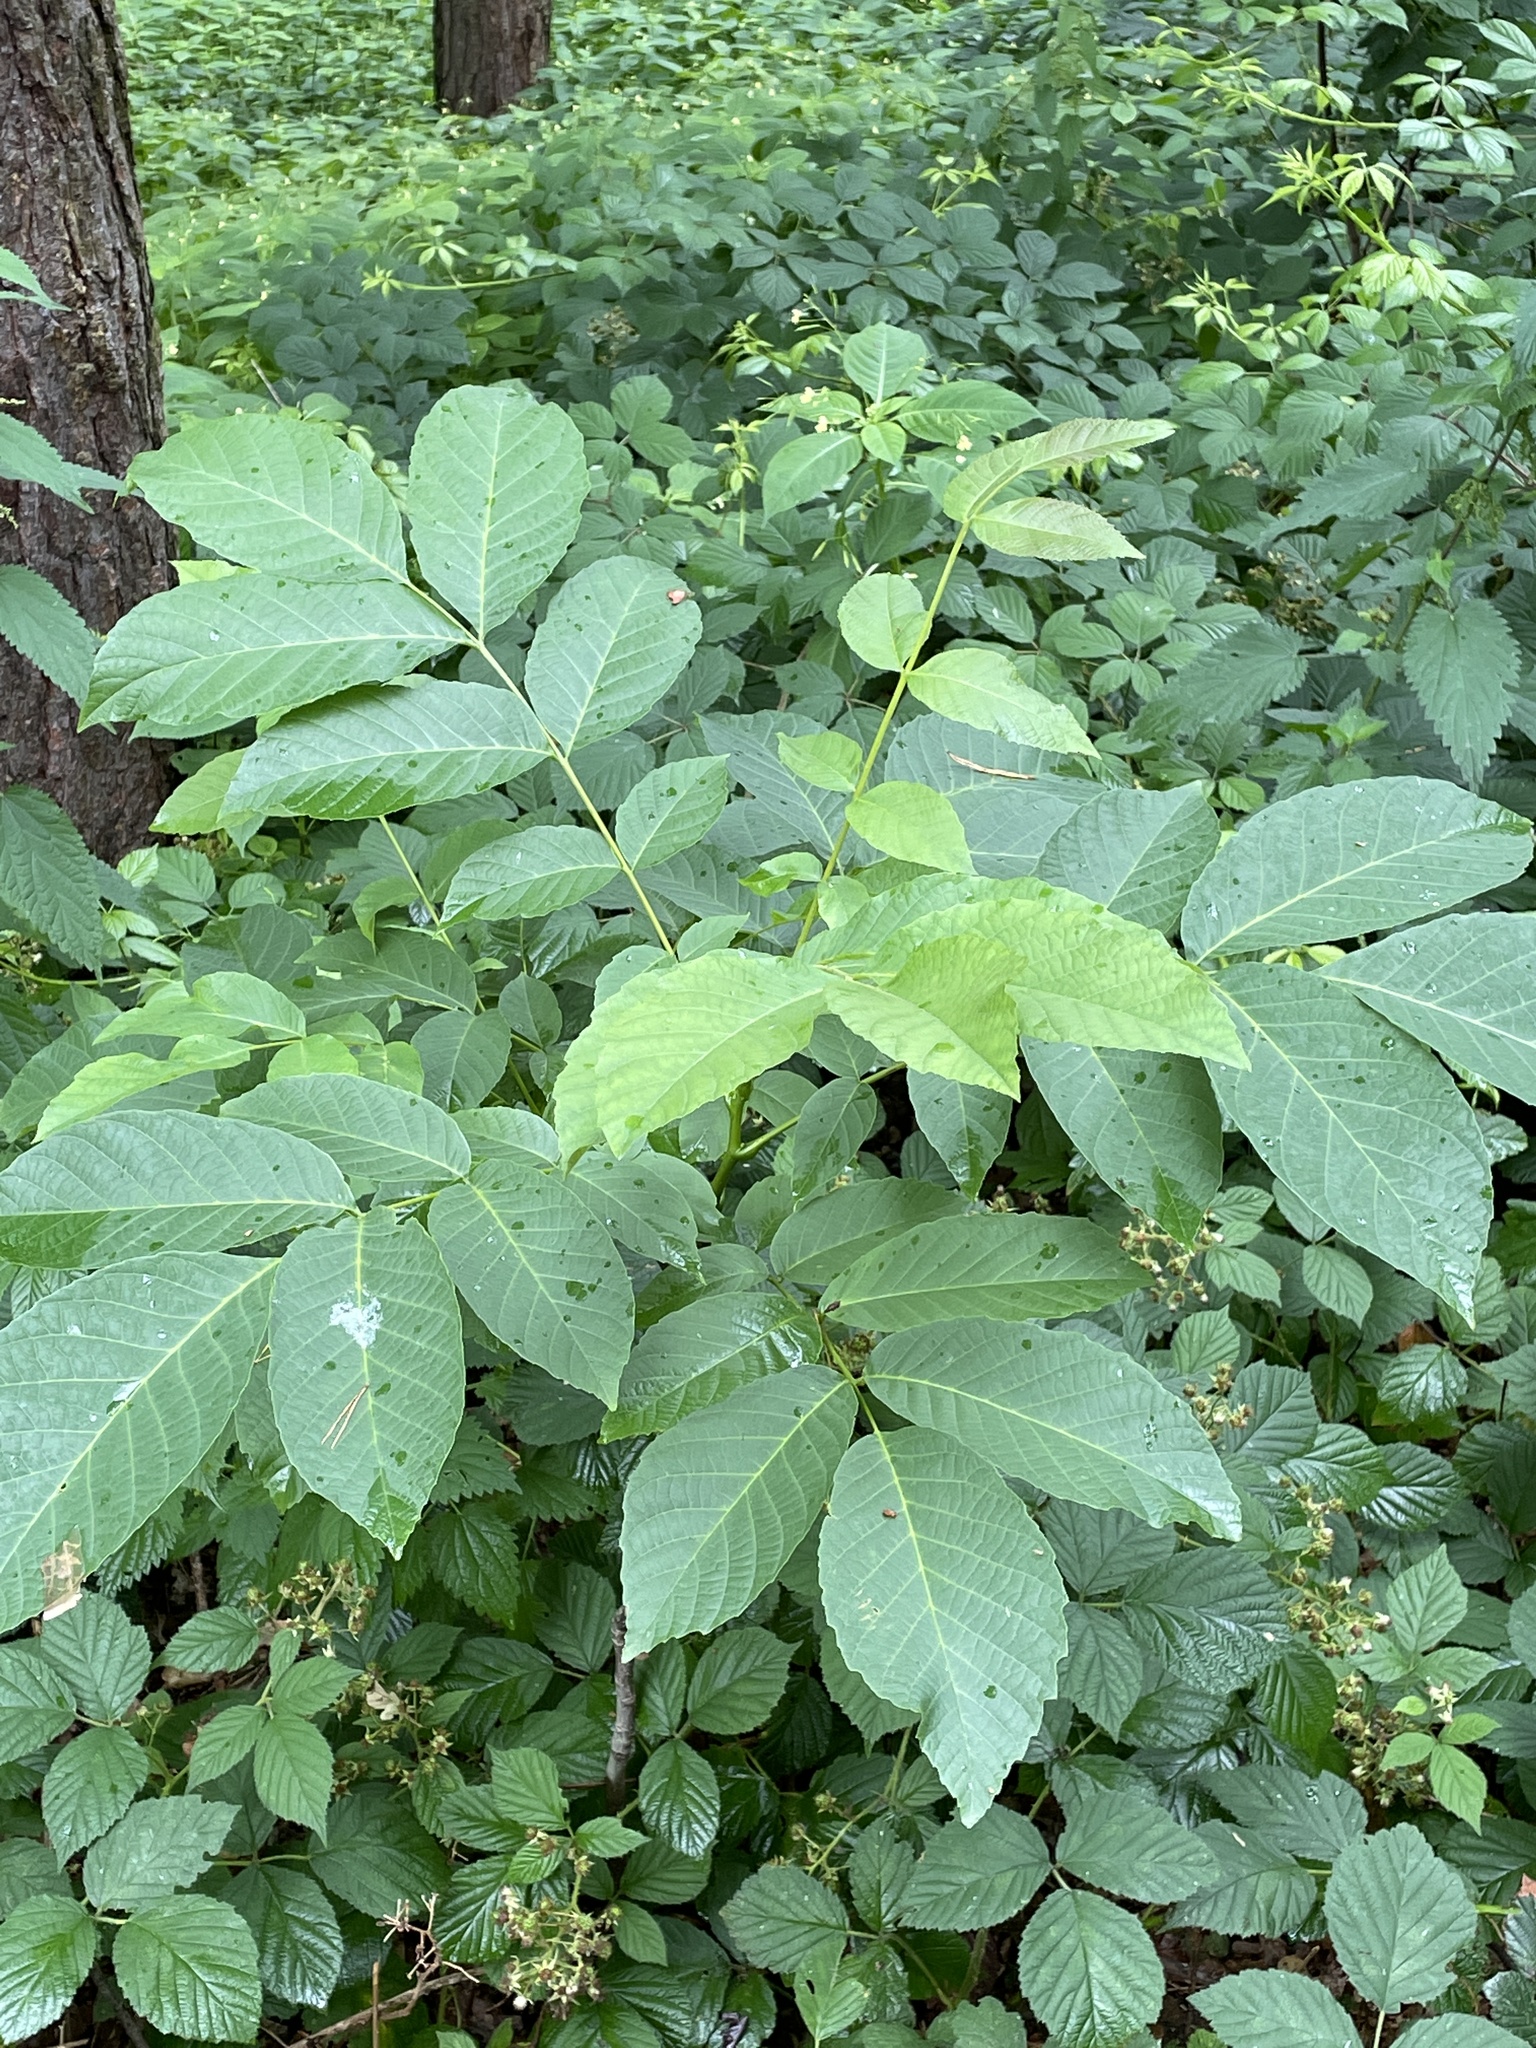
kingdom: Plantae
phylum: Tracheophyta
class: Magnoliopsida
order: Fagales
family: Juglandaceae
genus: Juglans
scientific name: Juglans regia
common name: Walnut
